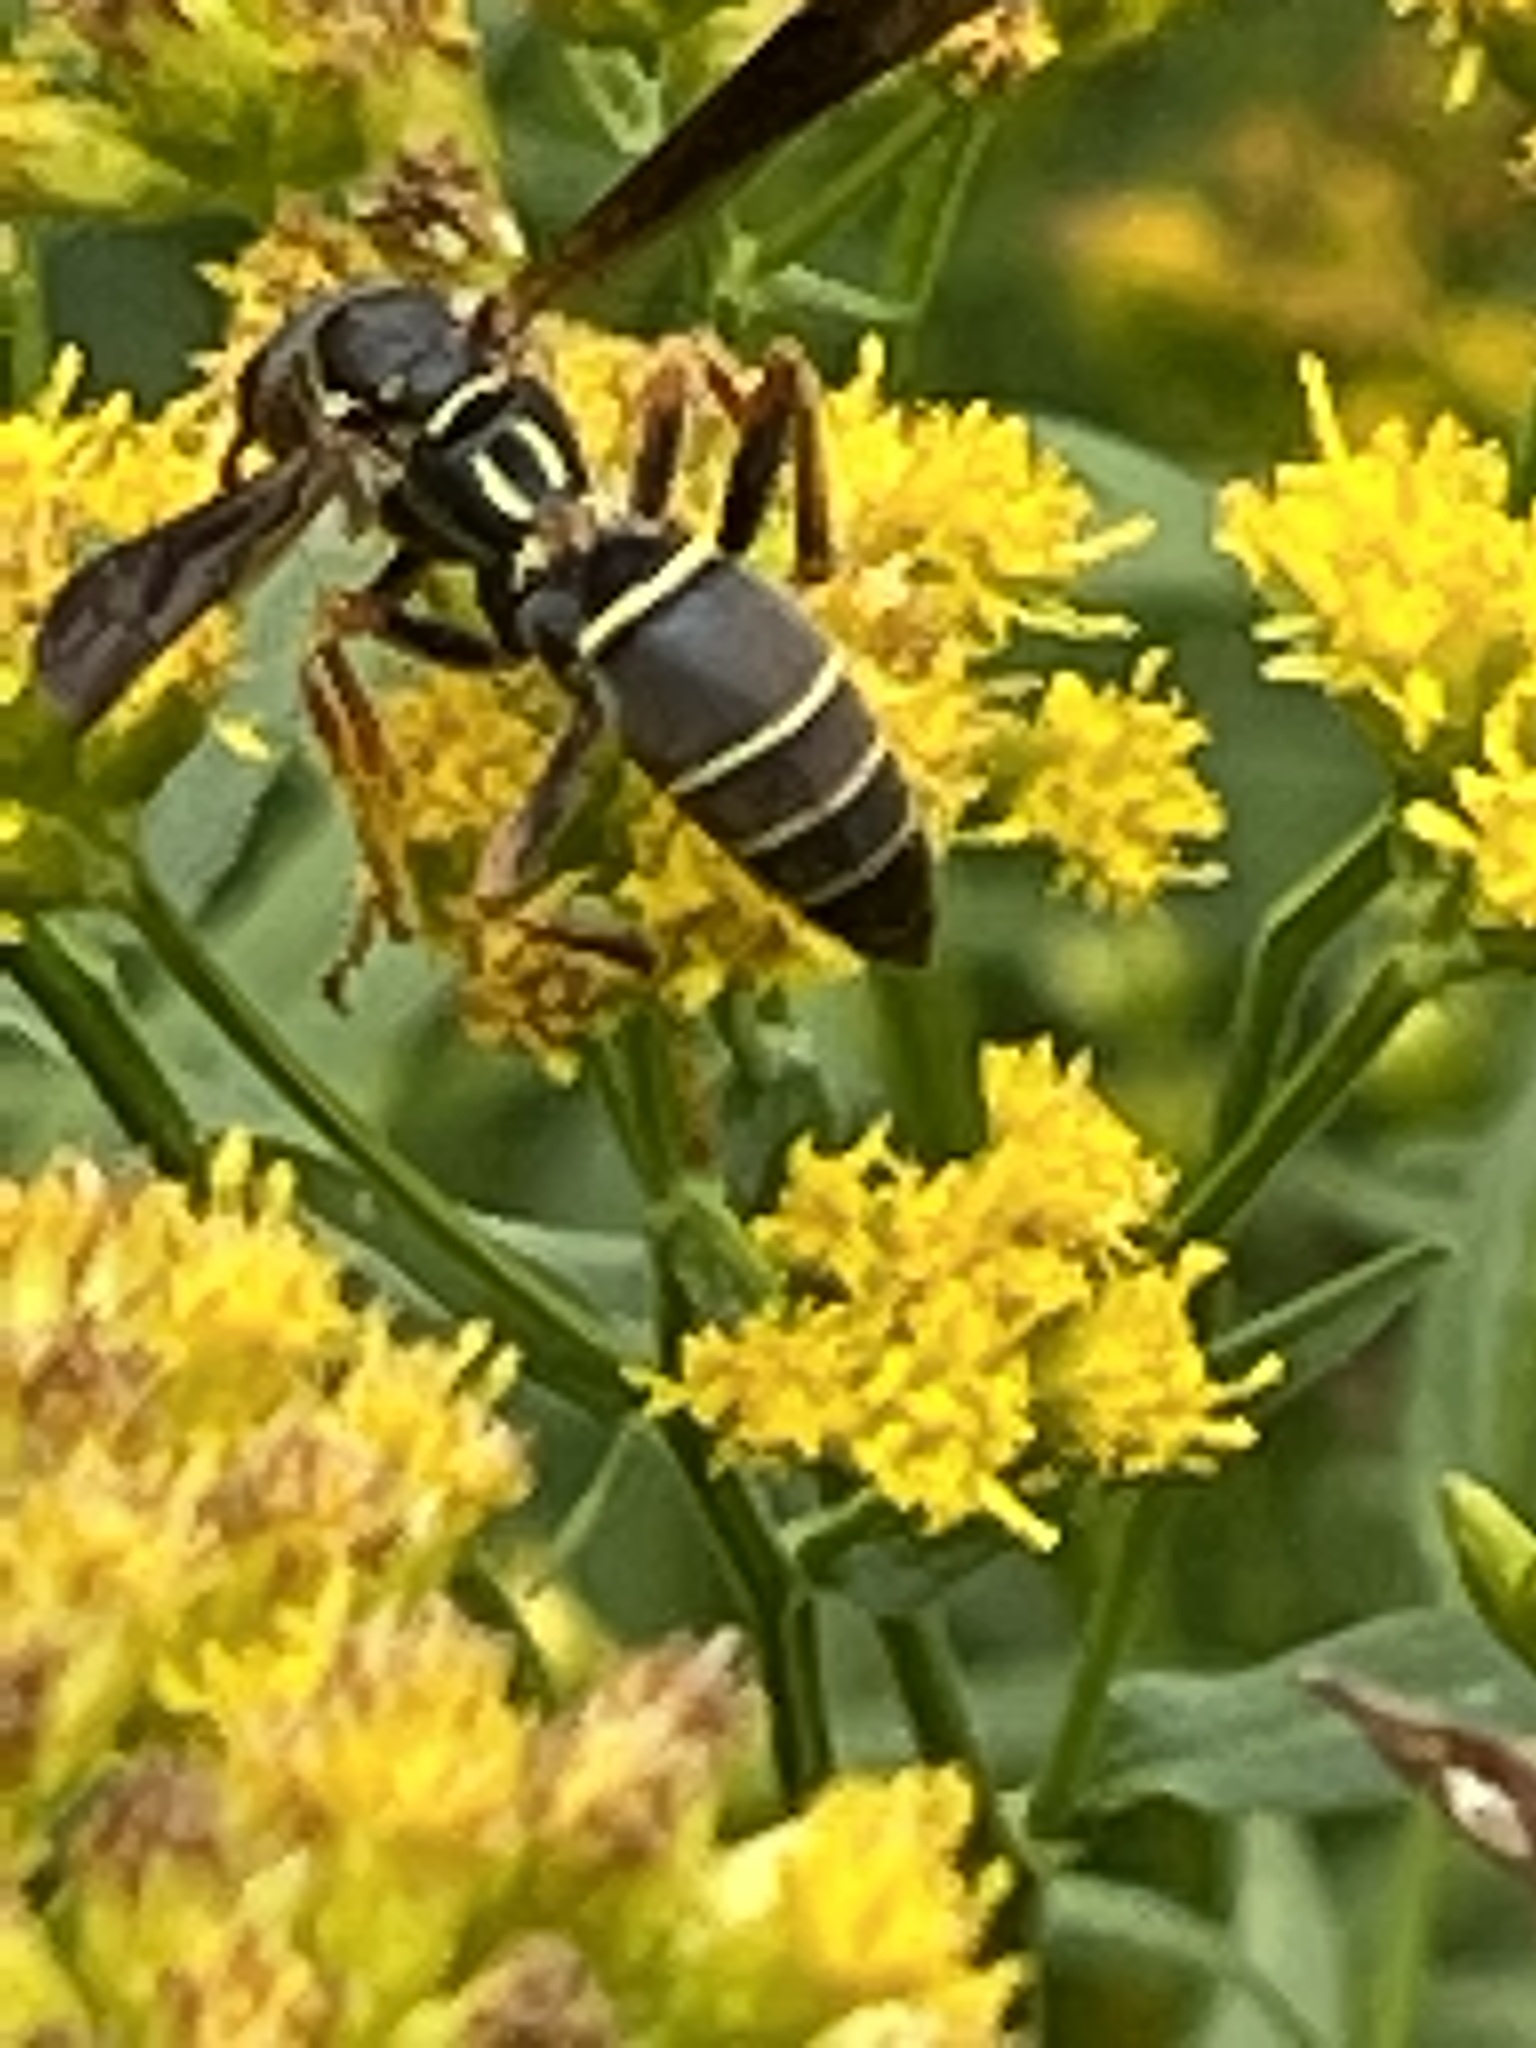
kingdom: Animalia
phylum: Arthropoda
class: Insecta
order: Hymenoptera
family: Eumenidae
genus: Polistes
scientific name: Polistes fuscatus
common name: Dark paper wasp
